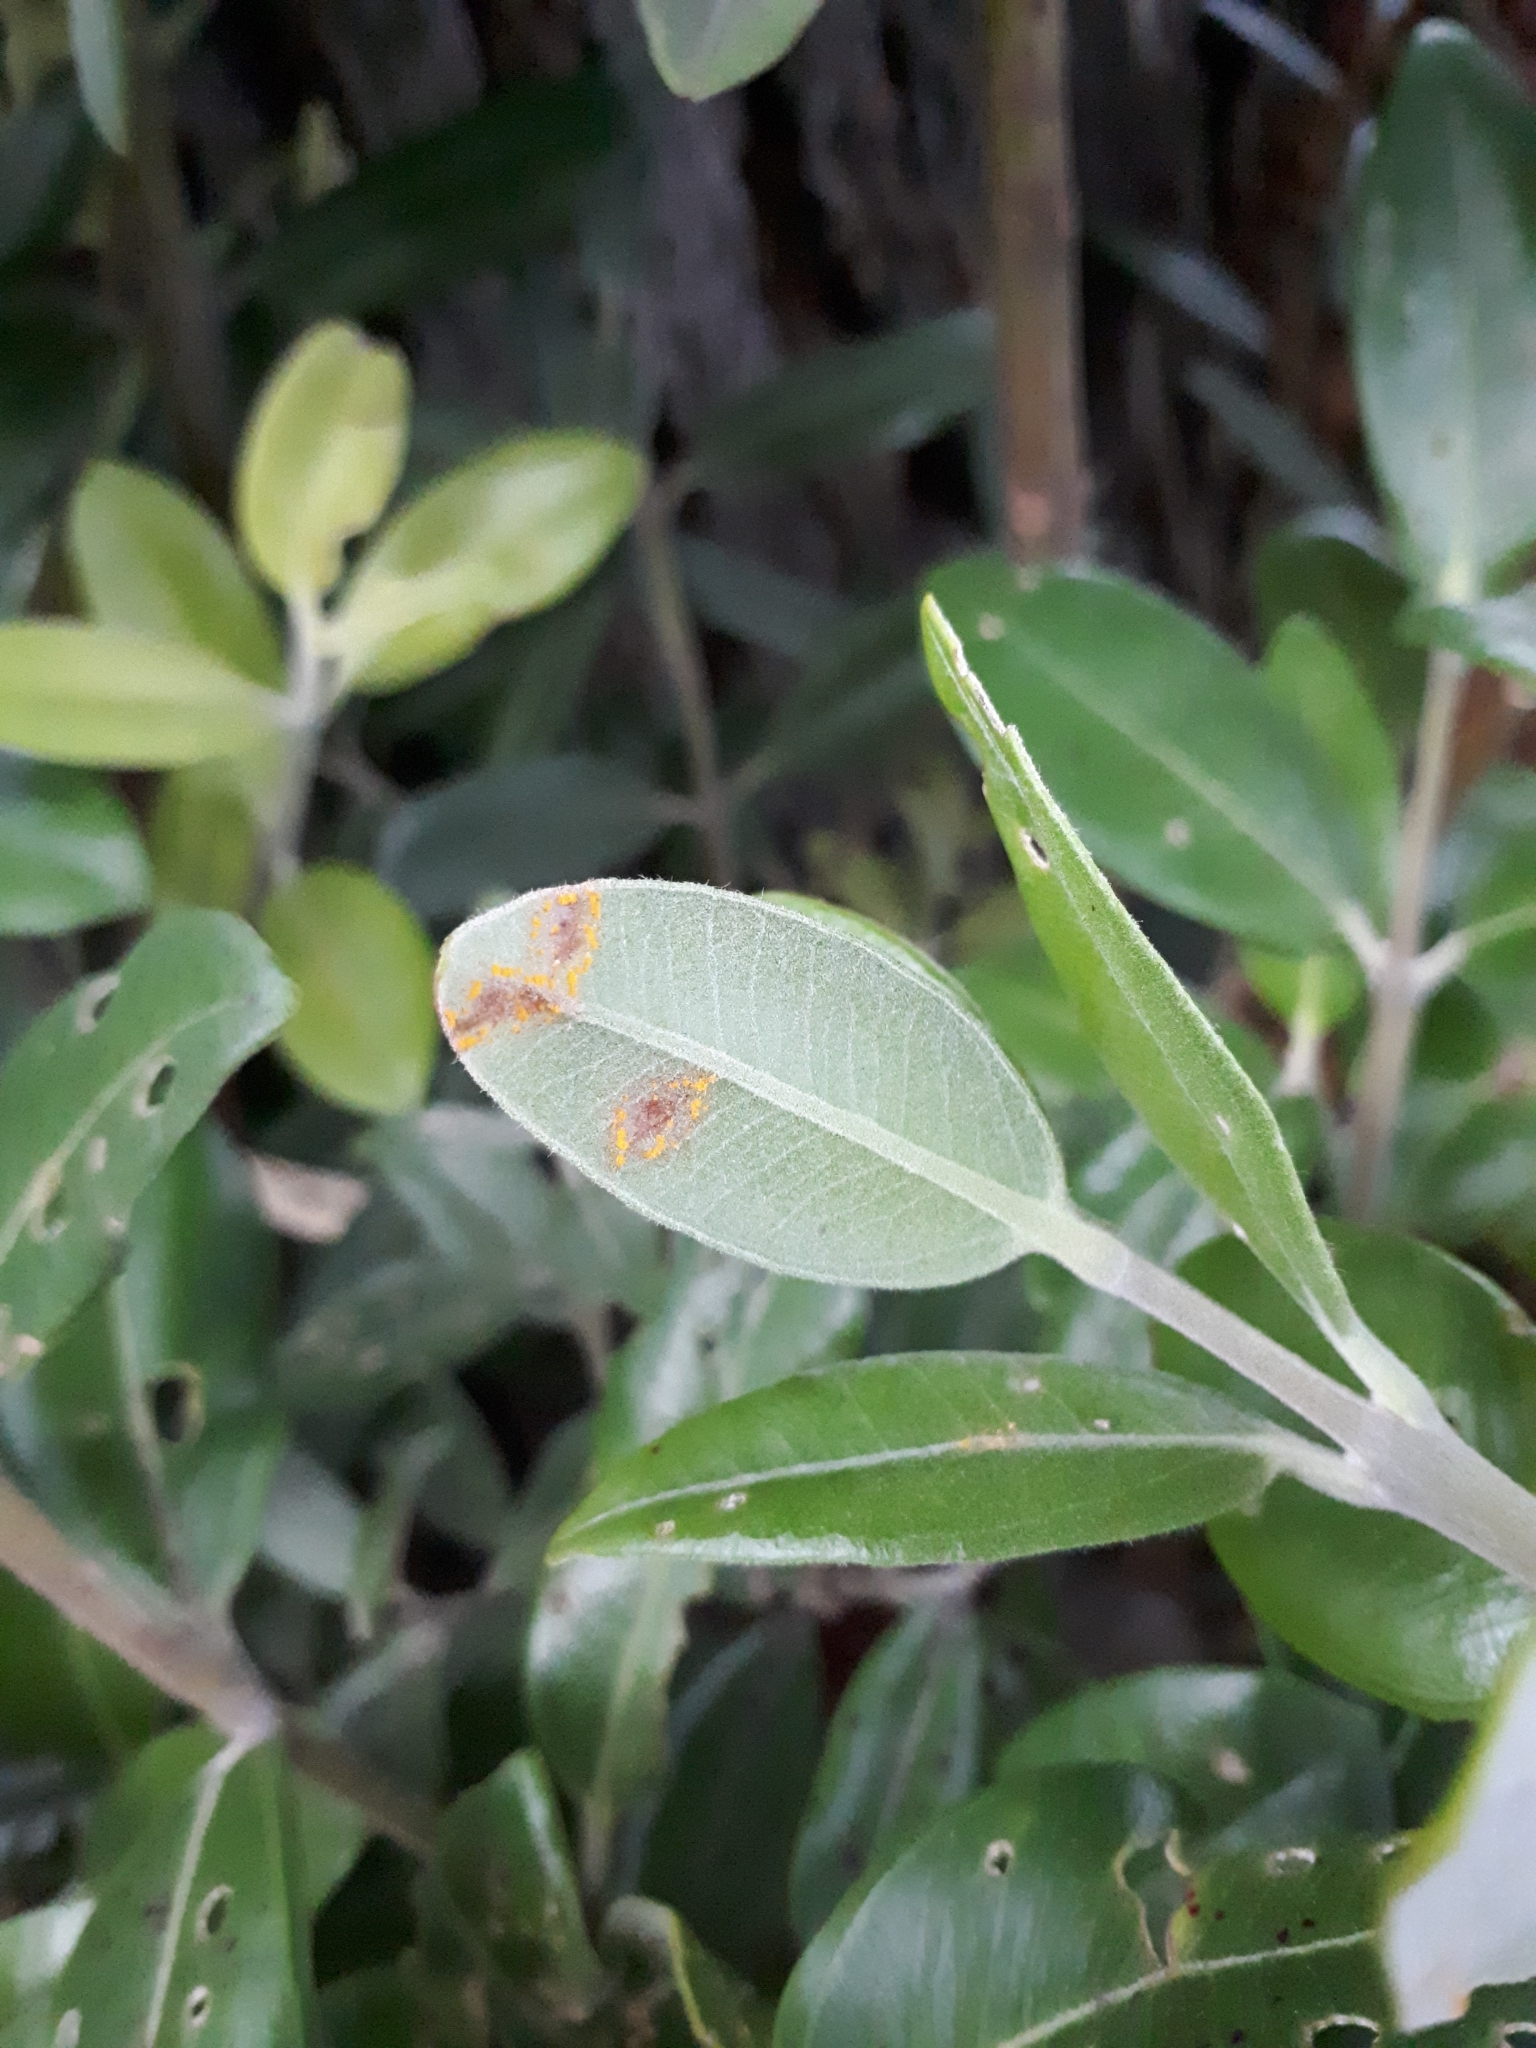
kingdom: Fungi
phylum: Basidiomycota
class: Pucciniomycetes
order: Pucciniales
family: Sphaerophragmiaceae
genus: Austropuccinia
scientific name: Austropuccinia psidii
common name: Myrtle rust
